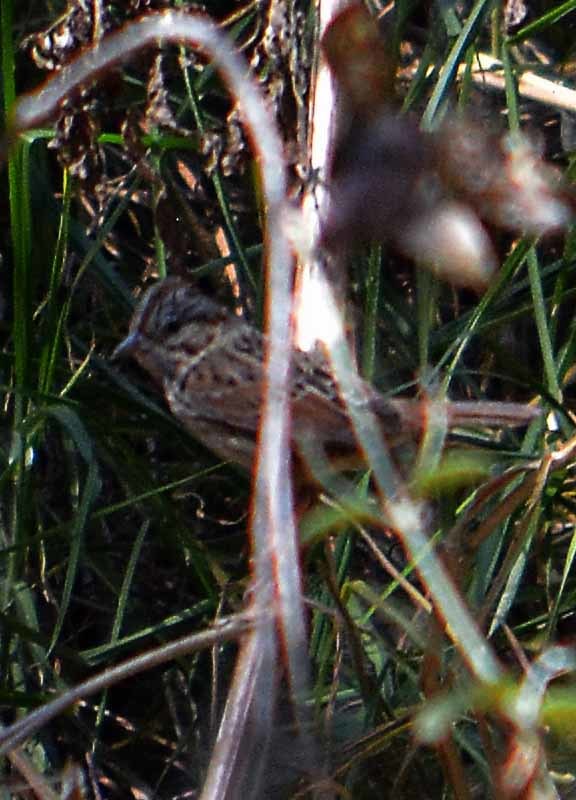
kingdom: Animalia
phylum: Chordata
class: Aves
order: Passeriformes
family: Passerellidae
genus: Melospiza
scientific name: Melospiza lincolnii
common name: Lincoln's sparrow
